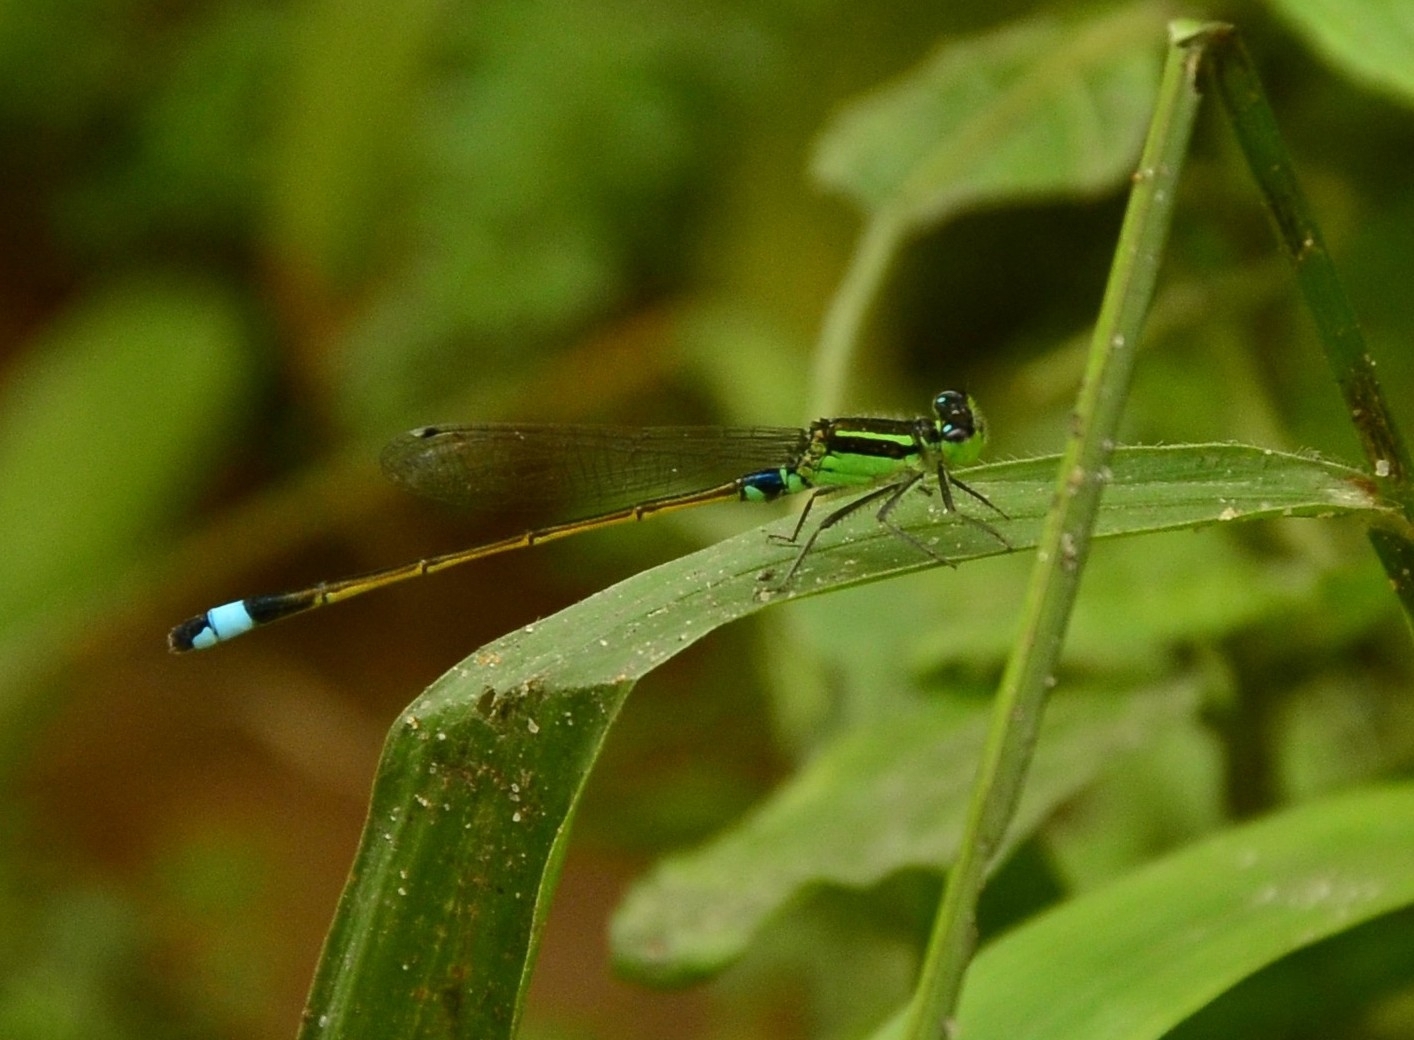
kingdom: Animalia
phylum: Arthropoda
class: Insecta
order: Odonata
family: Coenagrionidae
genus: Ischnura
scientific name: Ischnura senegalensis
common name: Tropical bluetail
